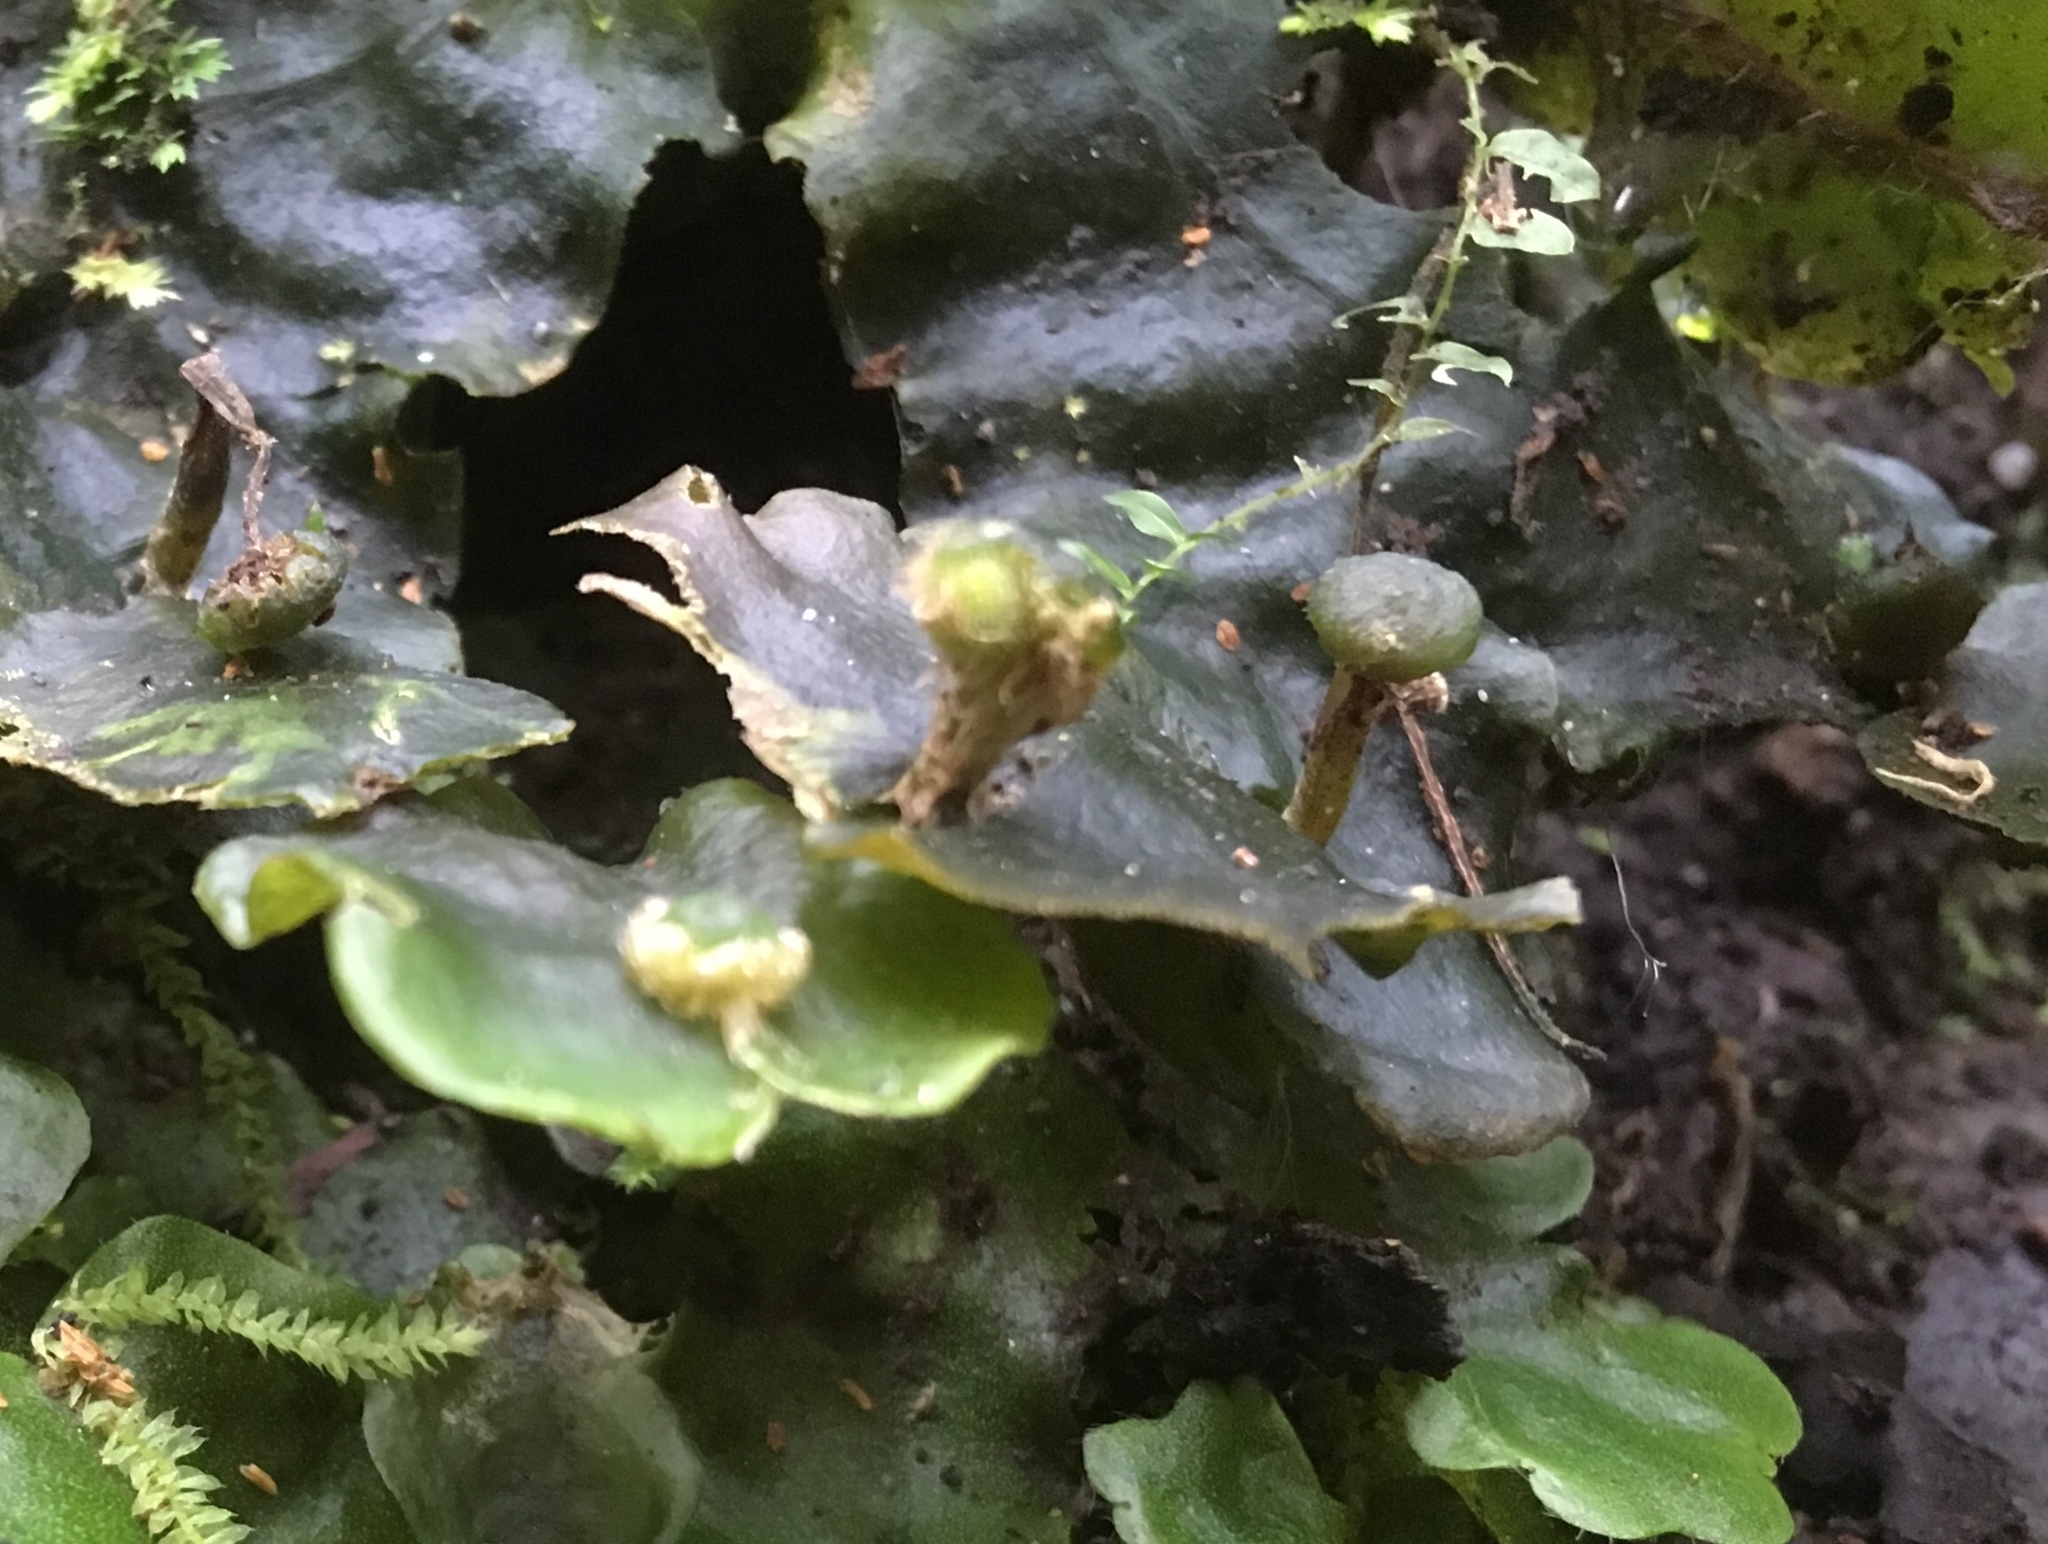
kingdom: Plantae
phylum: Marchantiophyta
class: Marchantiopsida
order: Marchantiales
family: Dumortieraceae
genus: Dumortiera
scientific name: Dumortiera hirsuta
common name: Dumortier's liverwort
